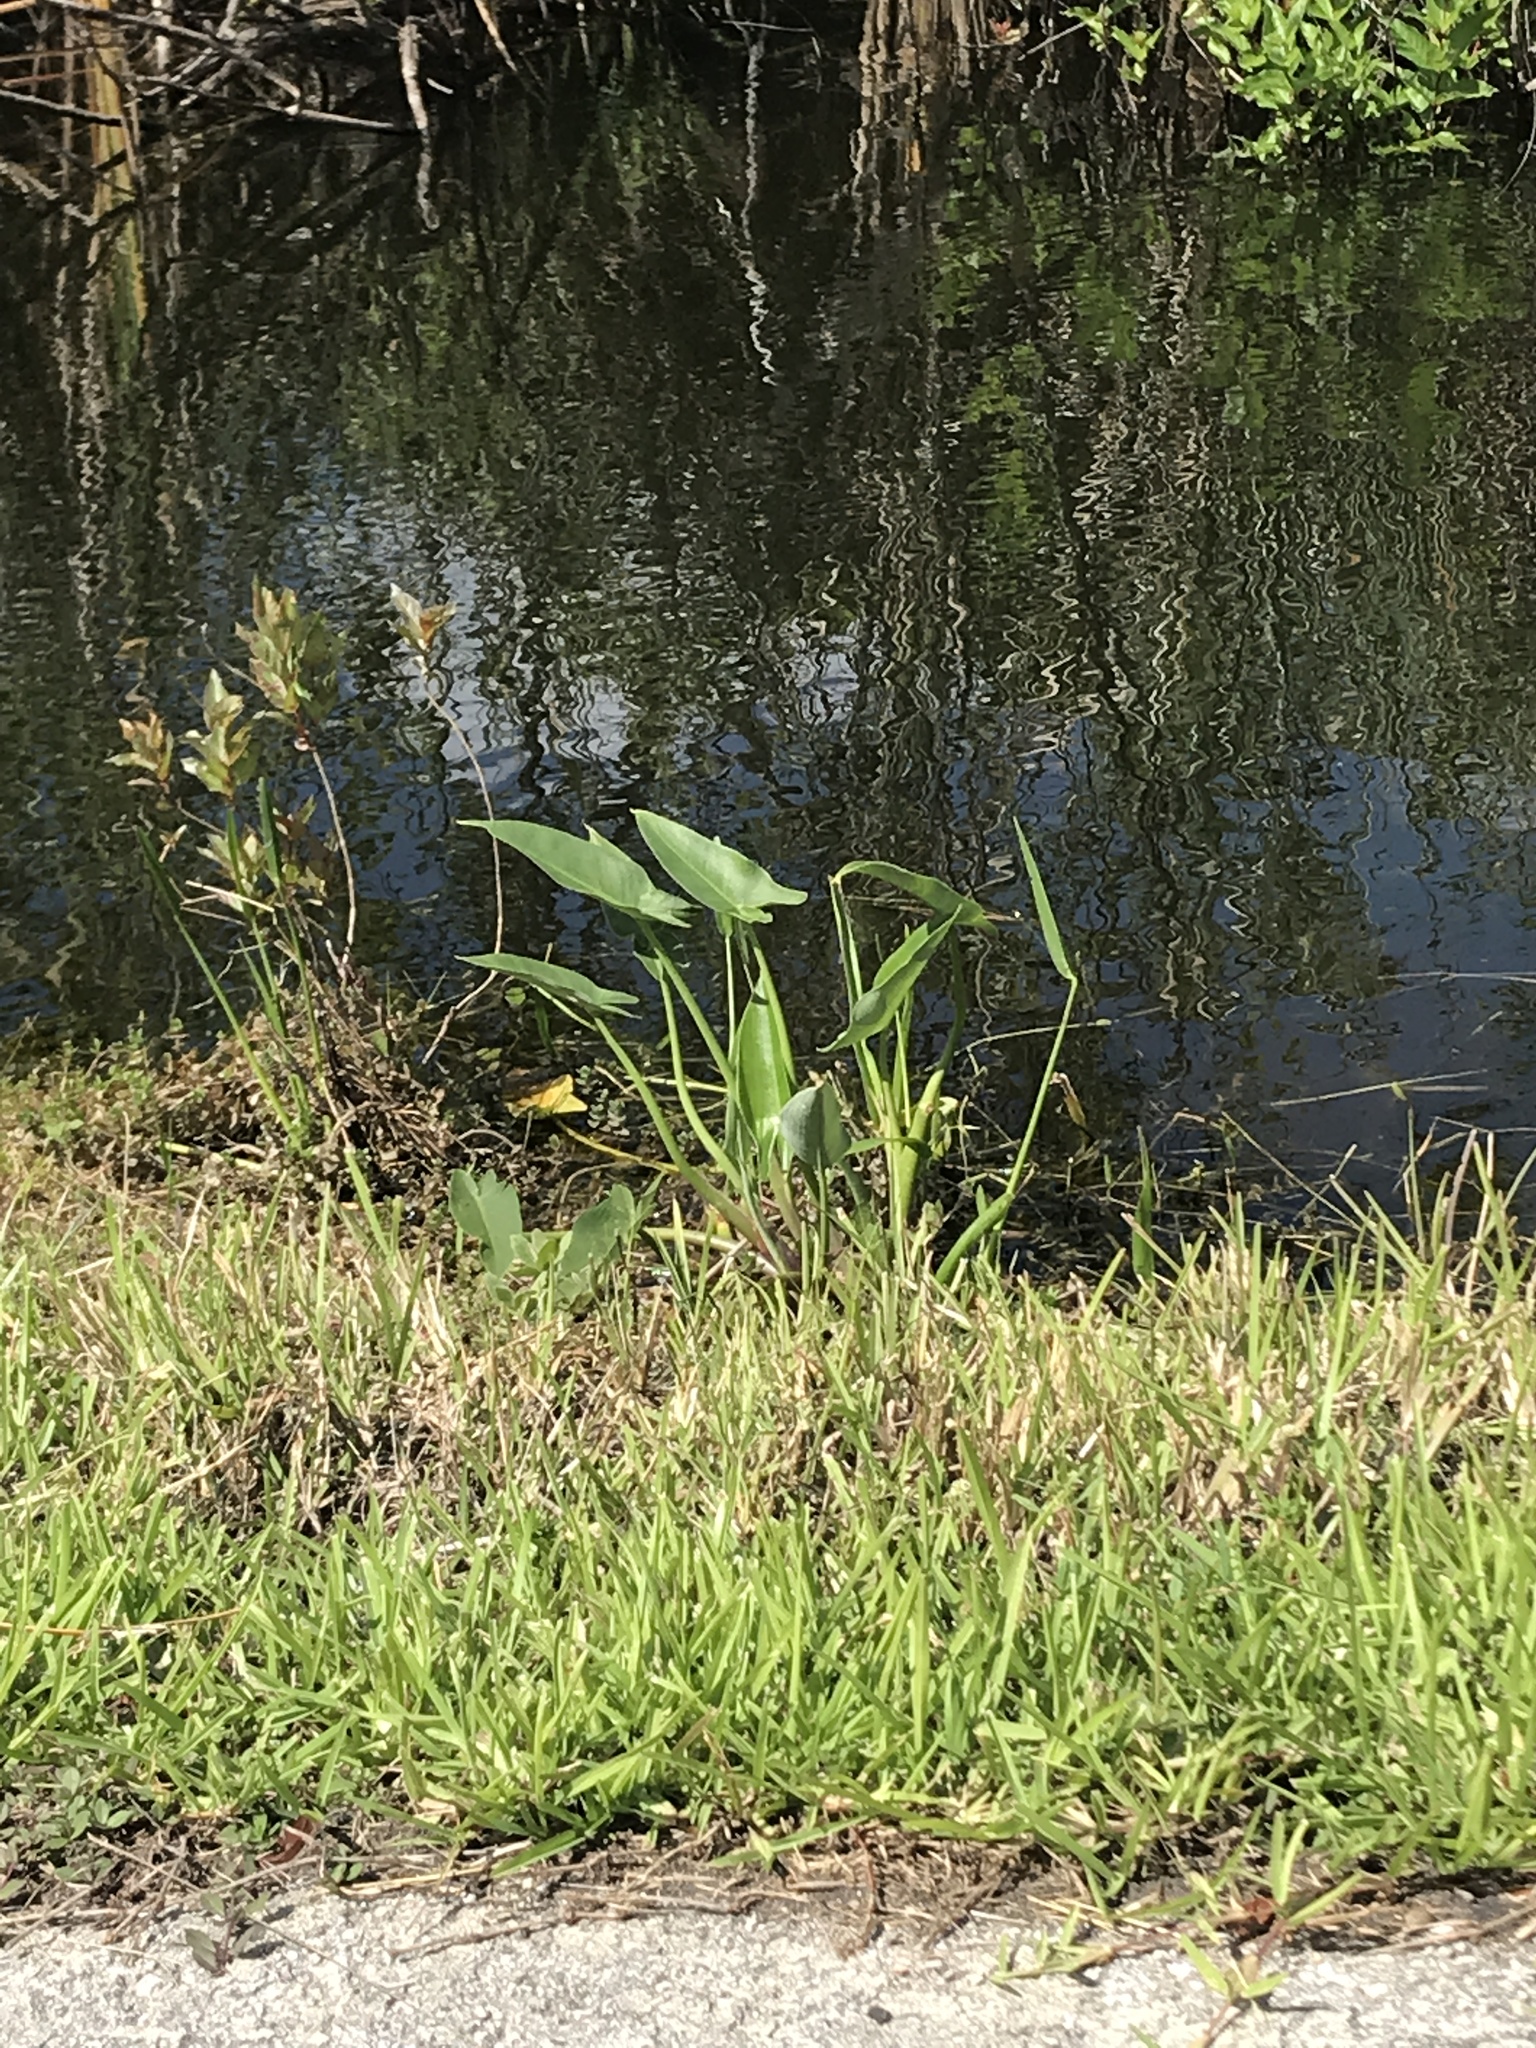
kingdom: Plantae
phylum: Tracheophyta
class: Liliopsida
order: Commelinales
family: Pontederiaceae
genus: Pontederia
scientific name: Pontederia cordata
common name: Pickerelweed
